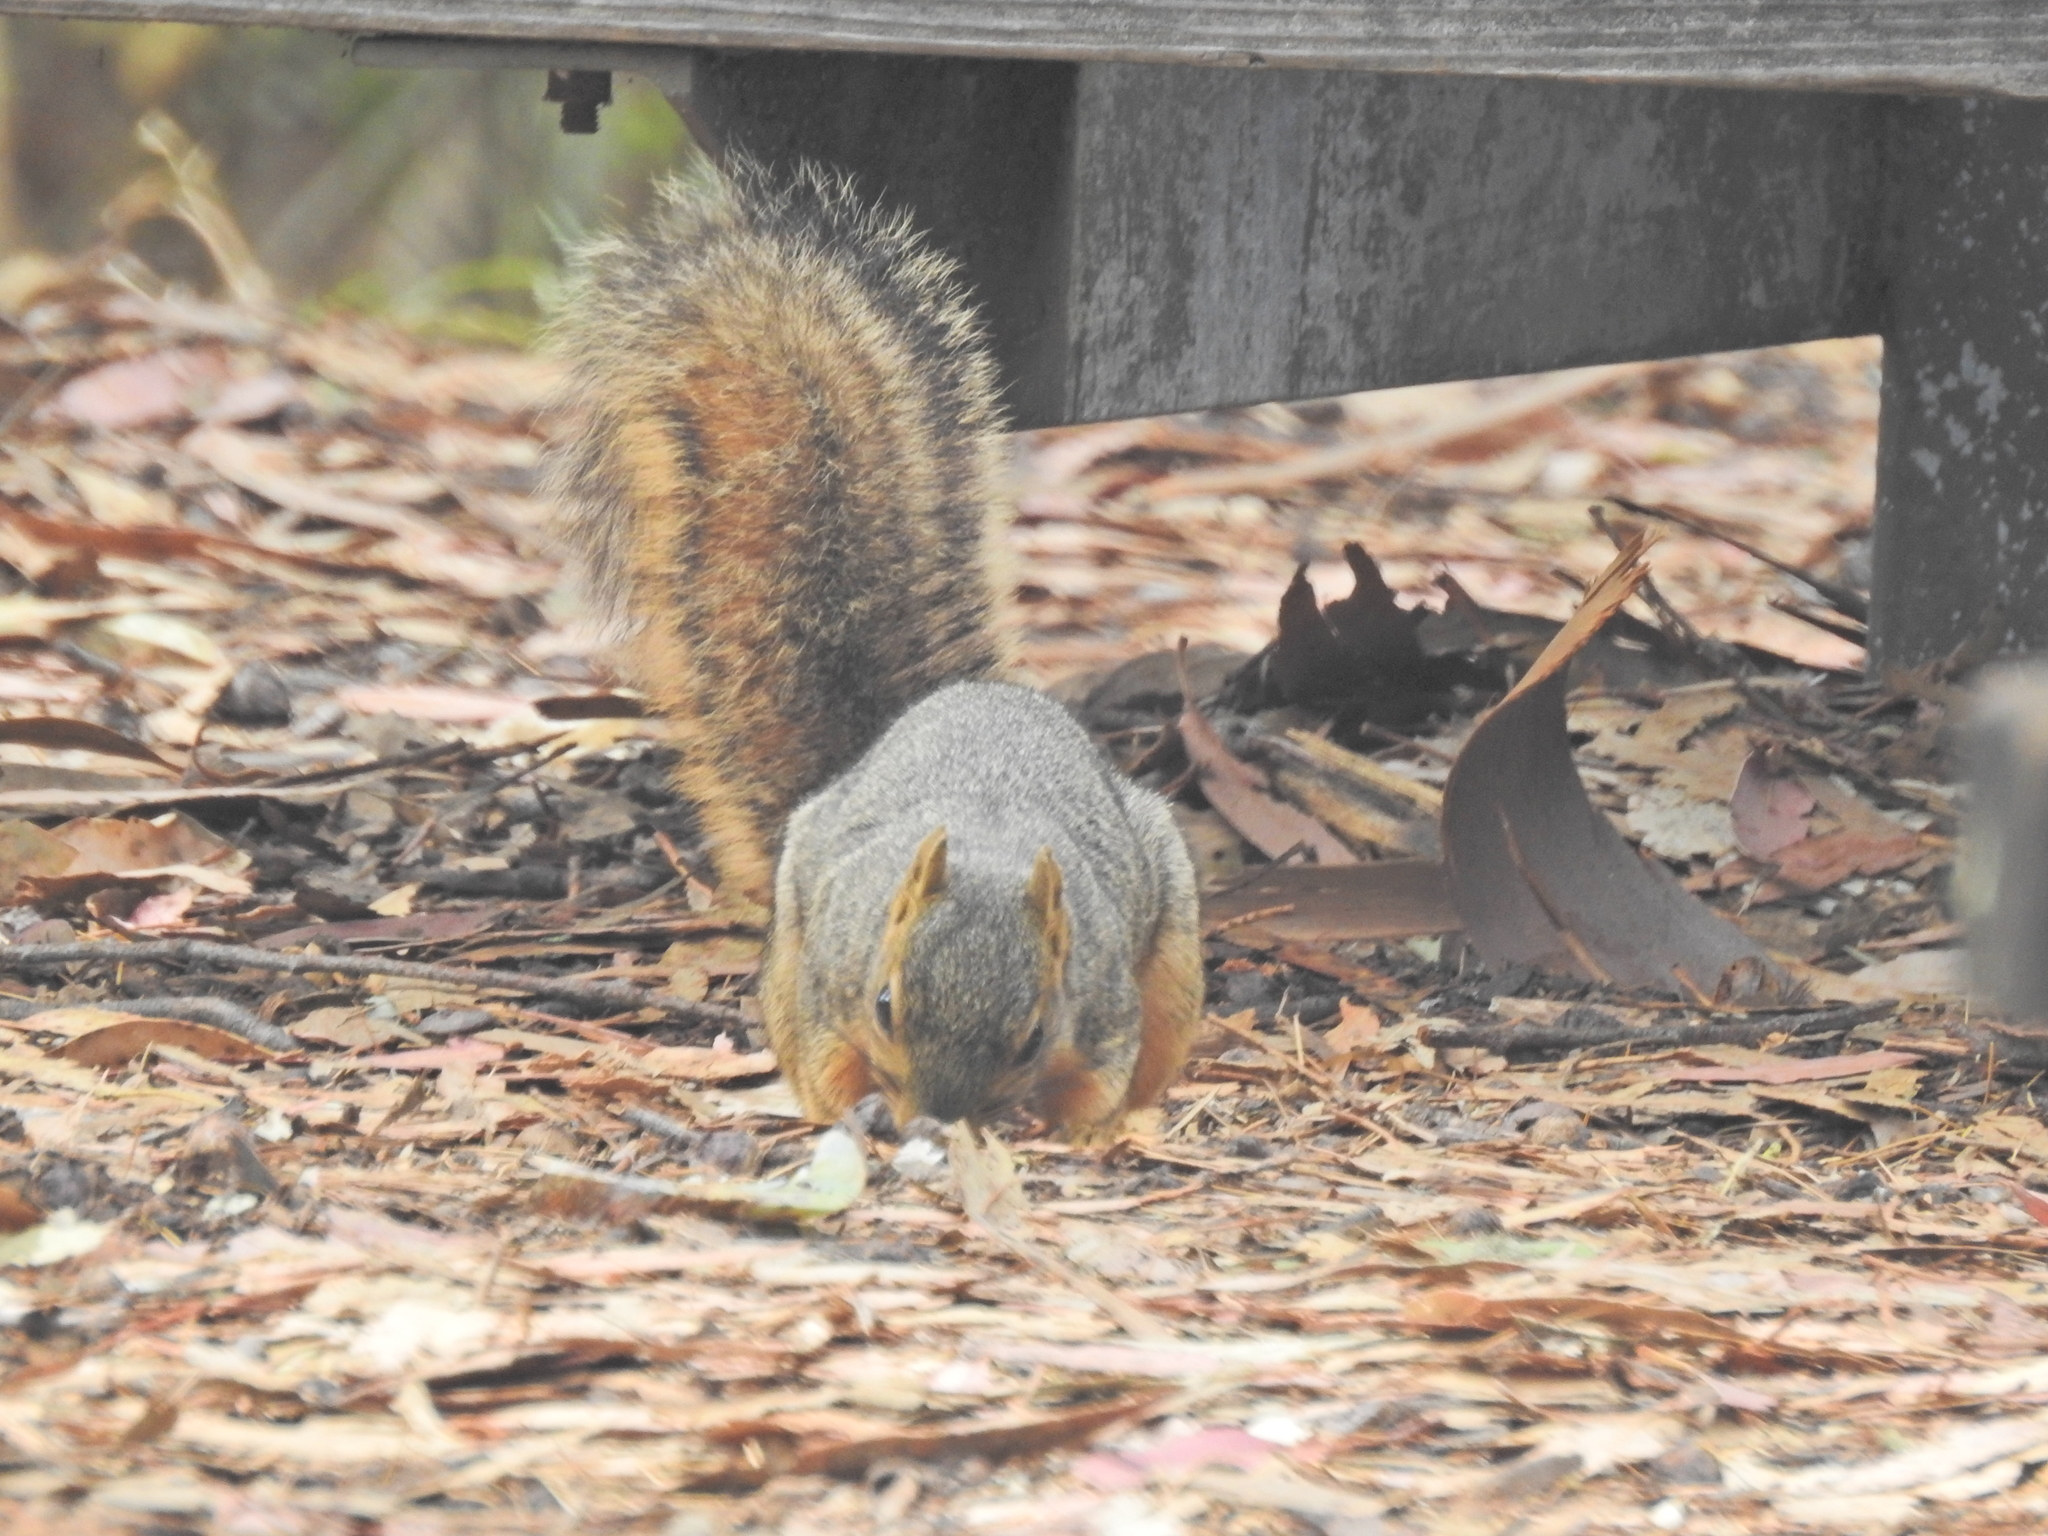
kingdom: Animalia
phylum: Chordata
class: Mammalia
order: Rodentia
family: Sciuridae
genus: Sciurus
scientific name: Sciurus niger
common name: Fox squirrel
